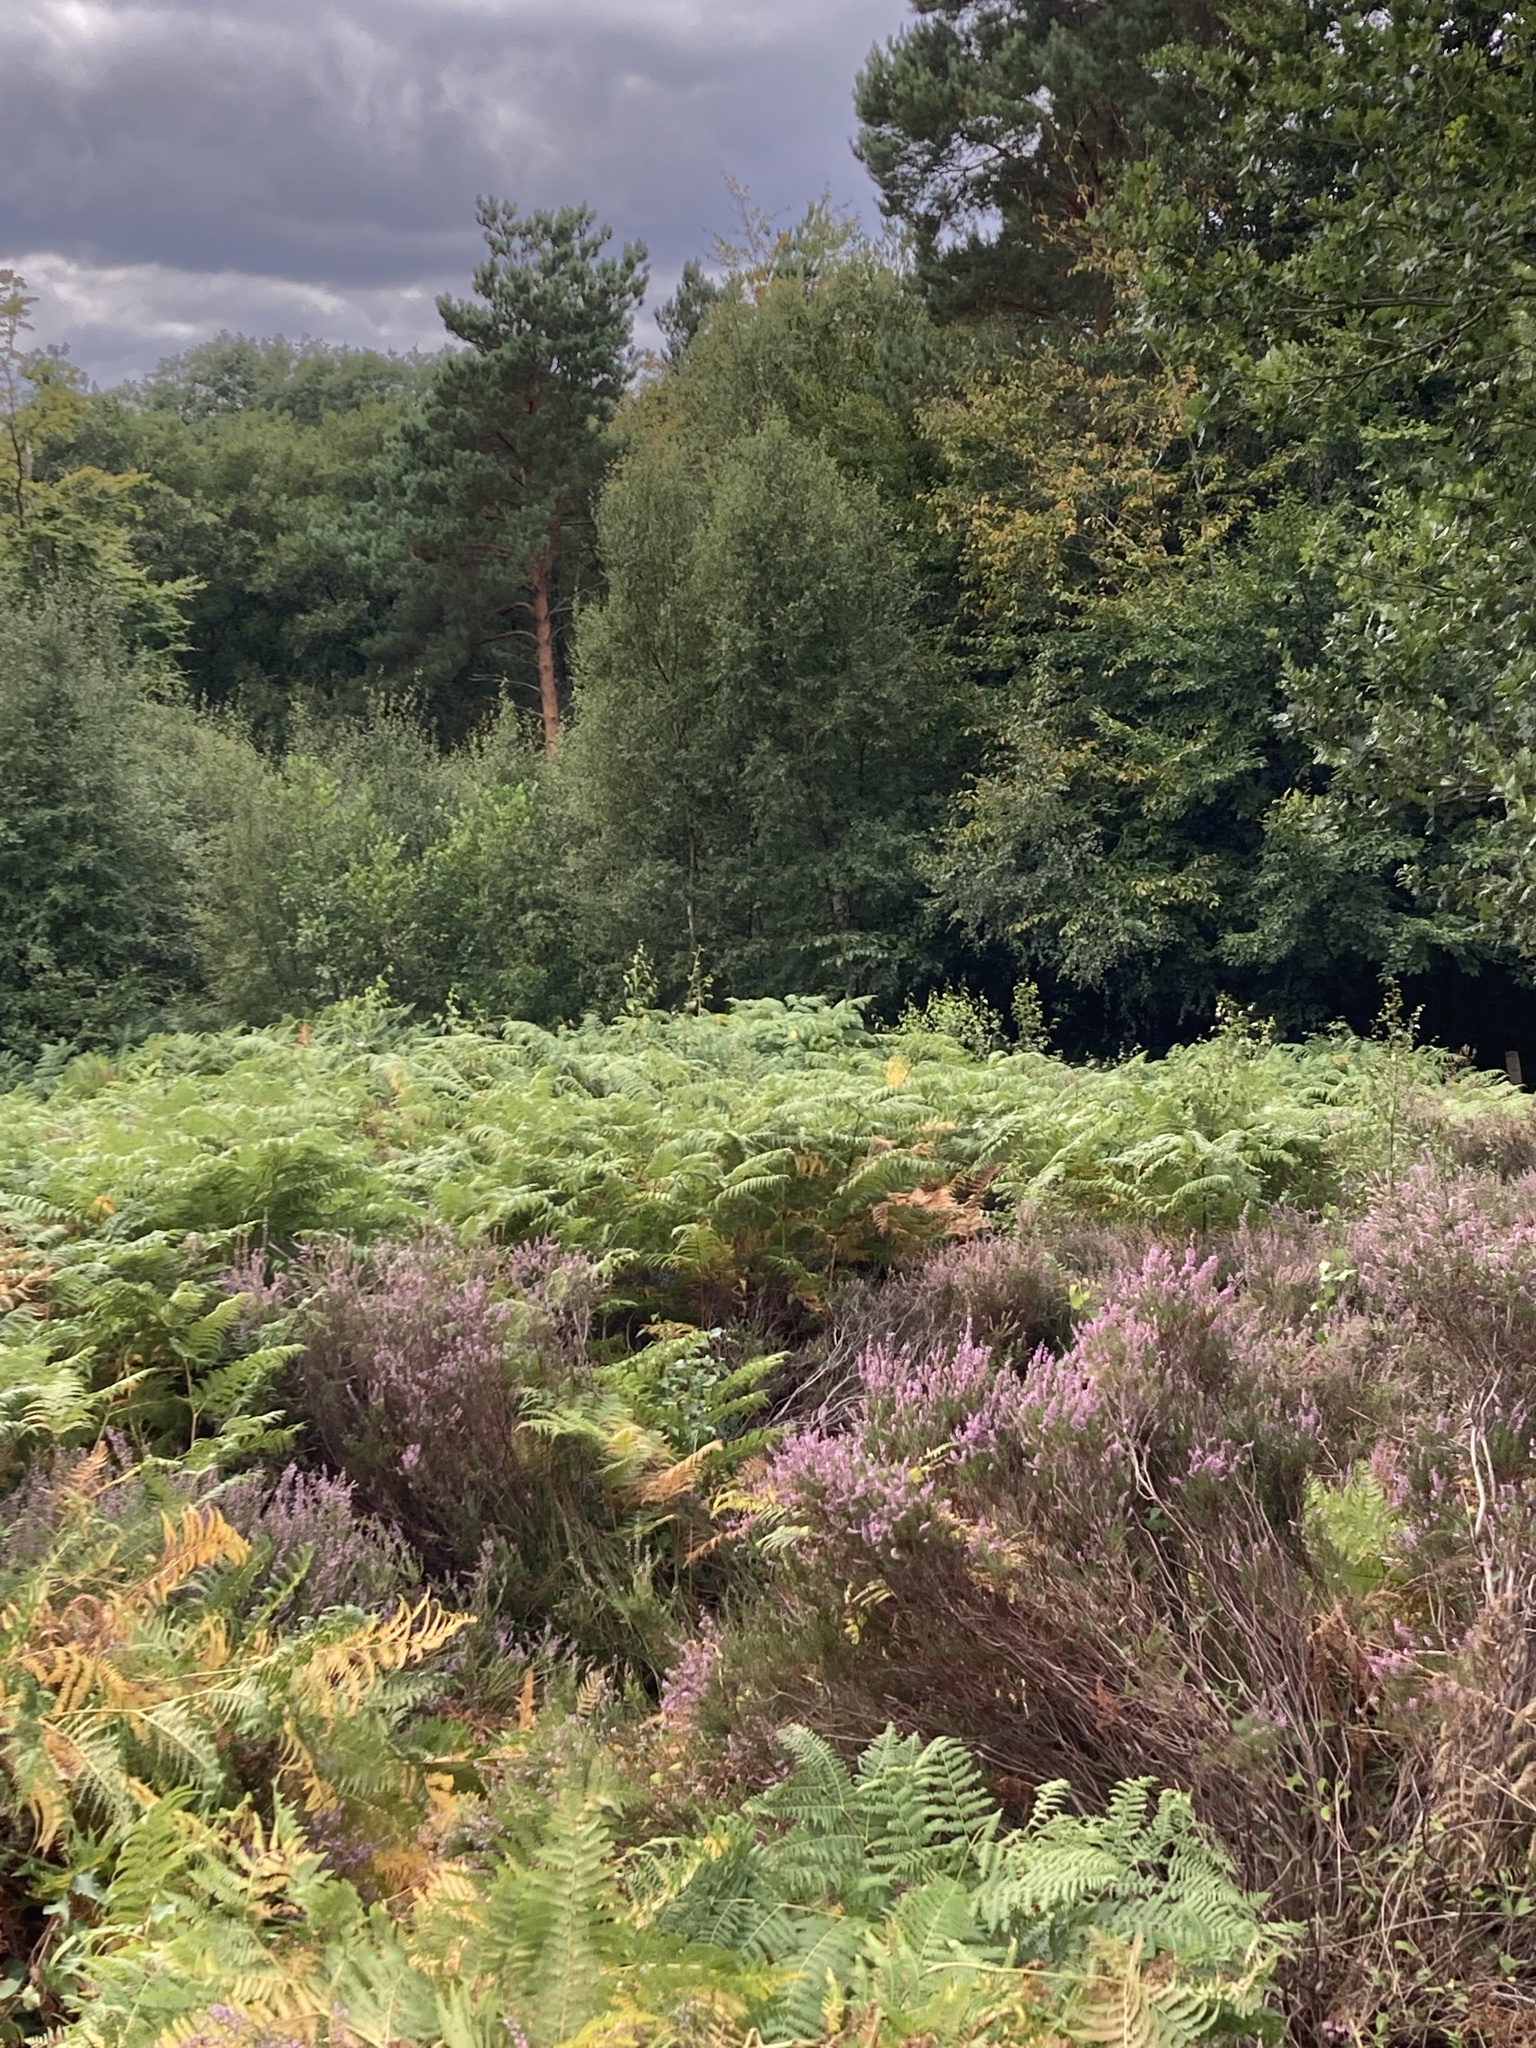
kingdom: Plantae
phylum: Tracheophyta
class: Magnoliopsida
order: Ericales
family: Ericaceae
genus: Calluna
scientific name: Calluna vulgaris
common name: Heather
